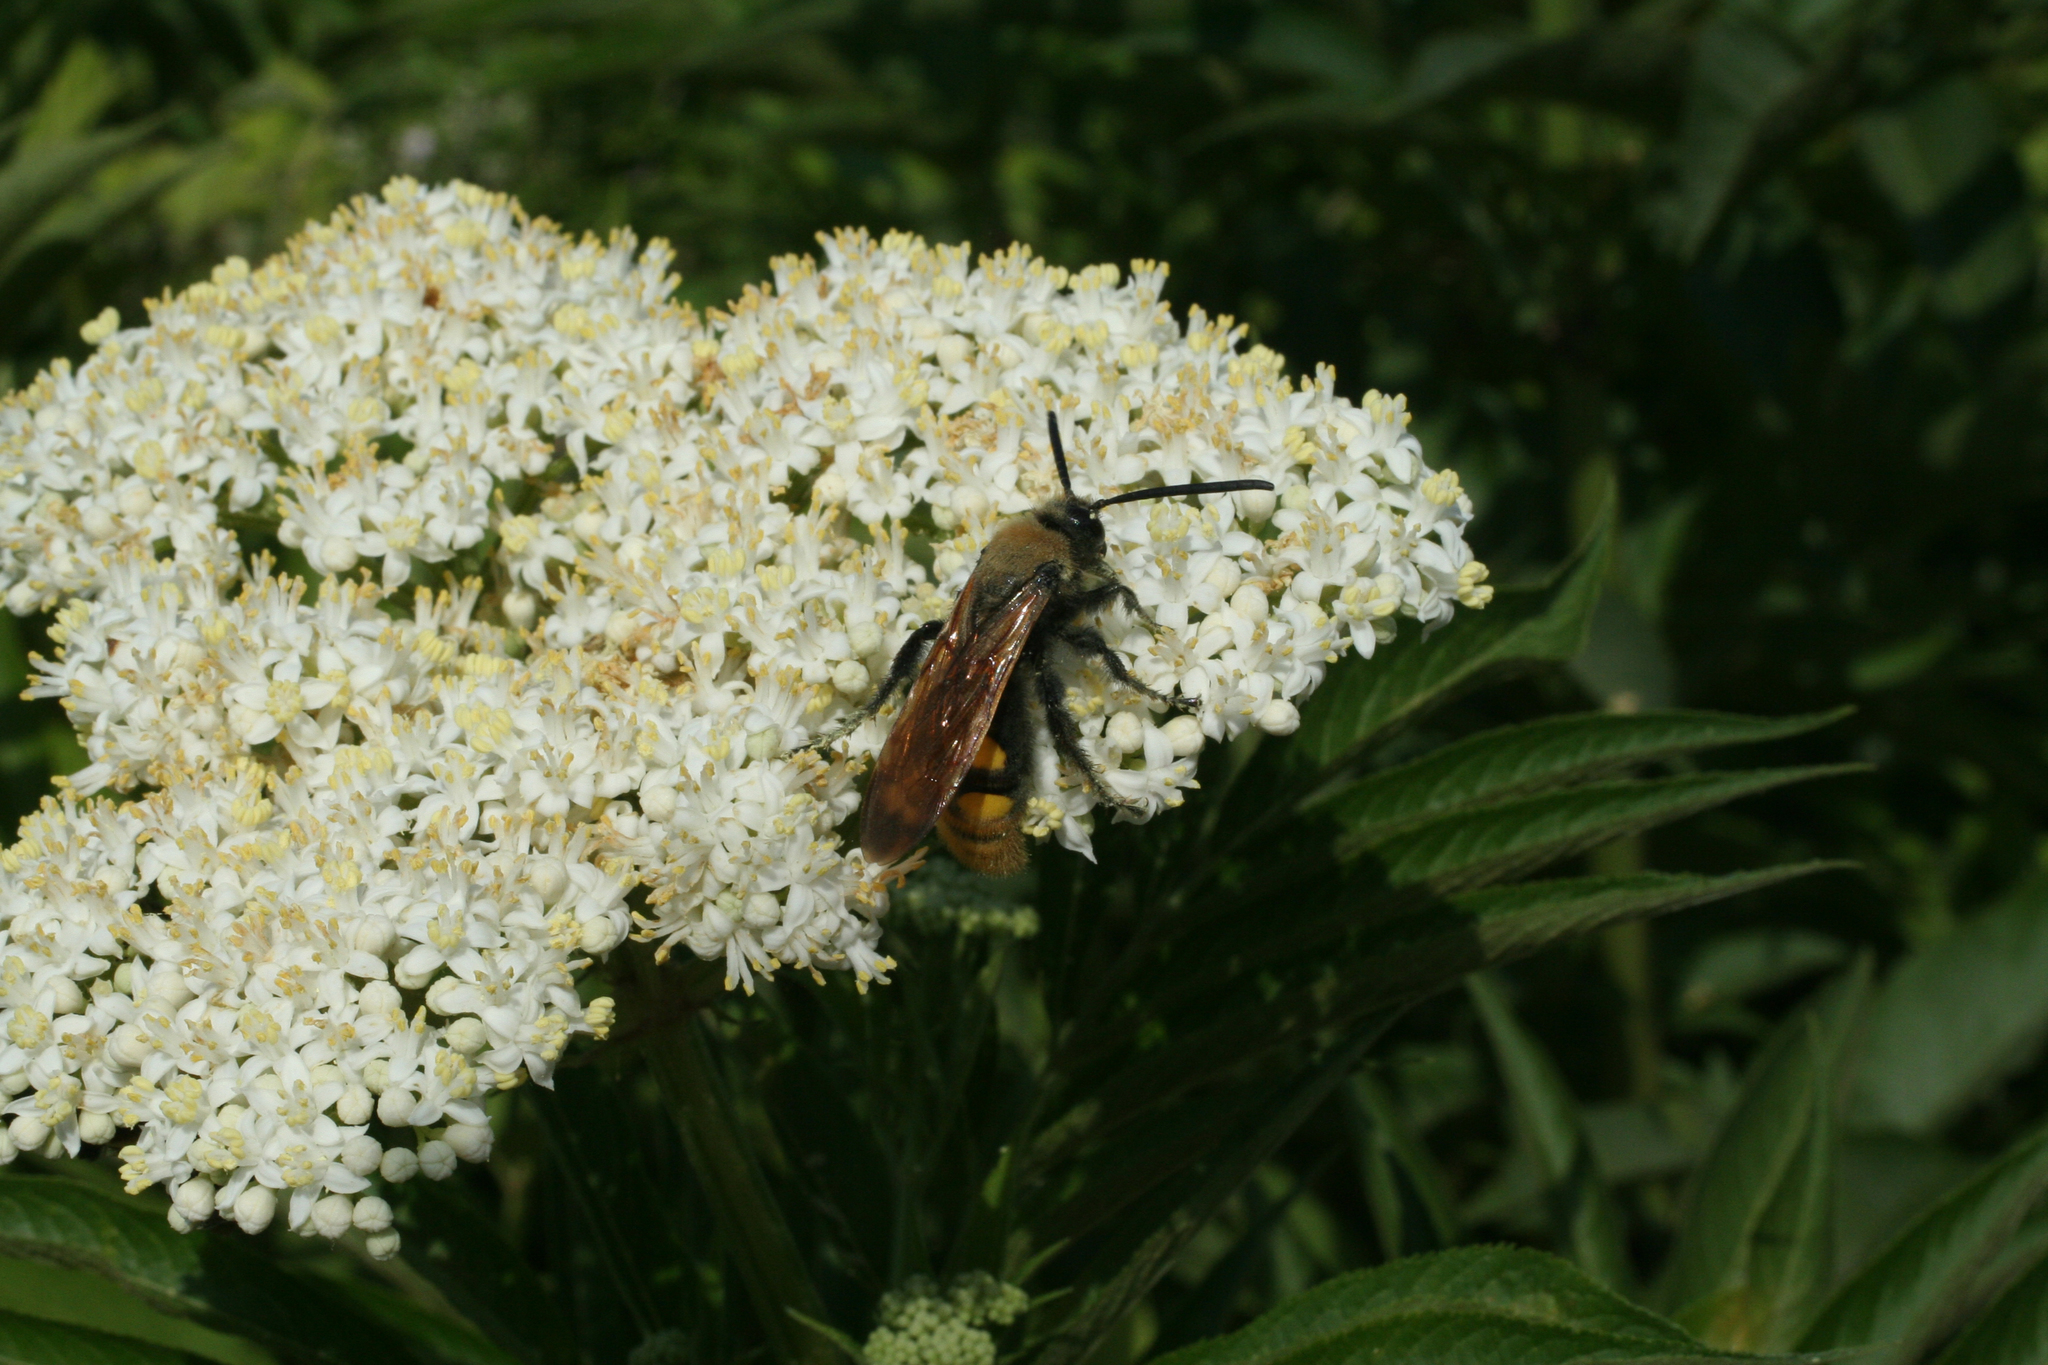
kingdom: Plantae
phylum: Tracheophyta
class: Magnoliopsida
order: Dipsacales
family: Viburnaceae
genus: Sambucus
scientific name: Sambucus ebulus
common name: Dwarf elder
